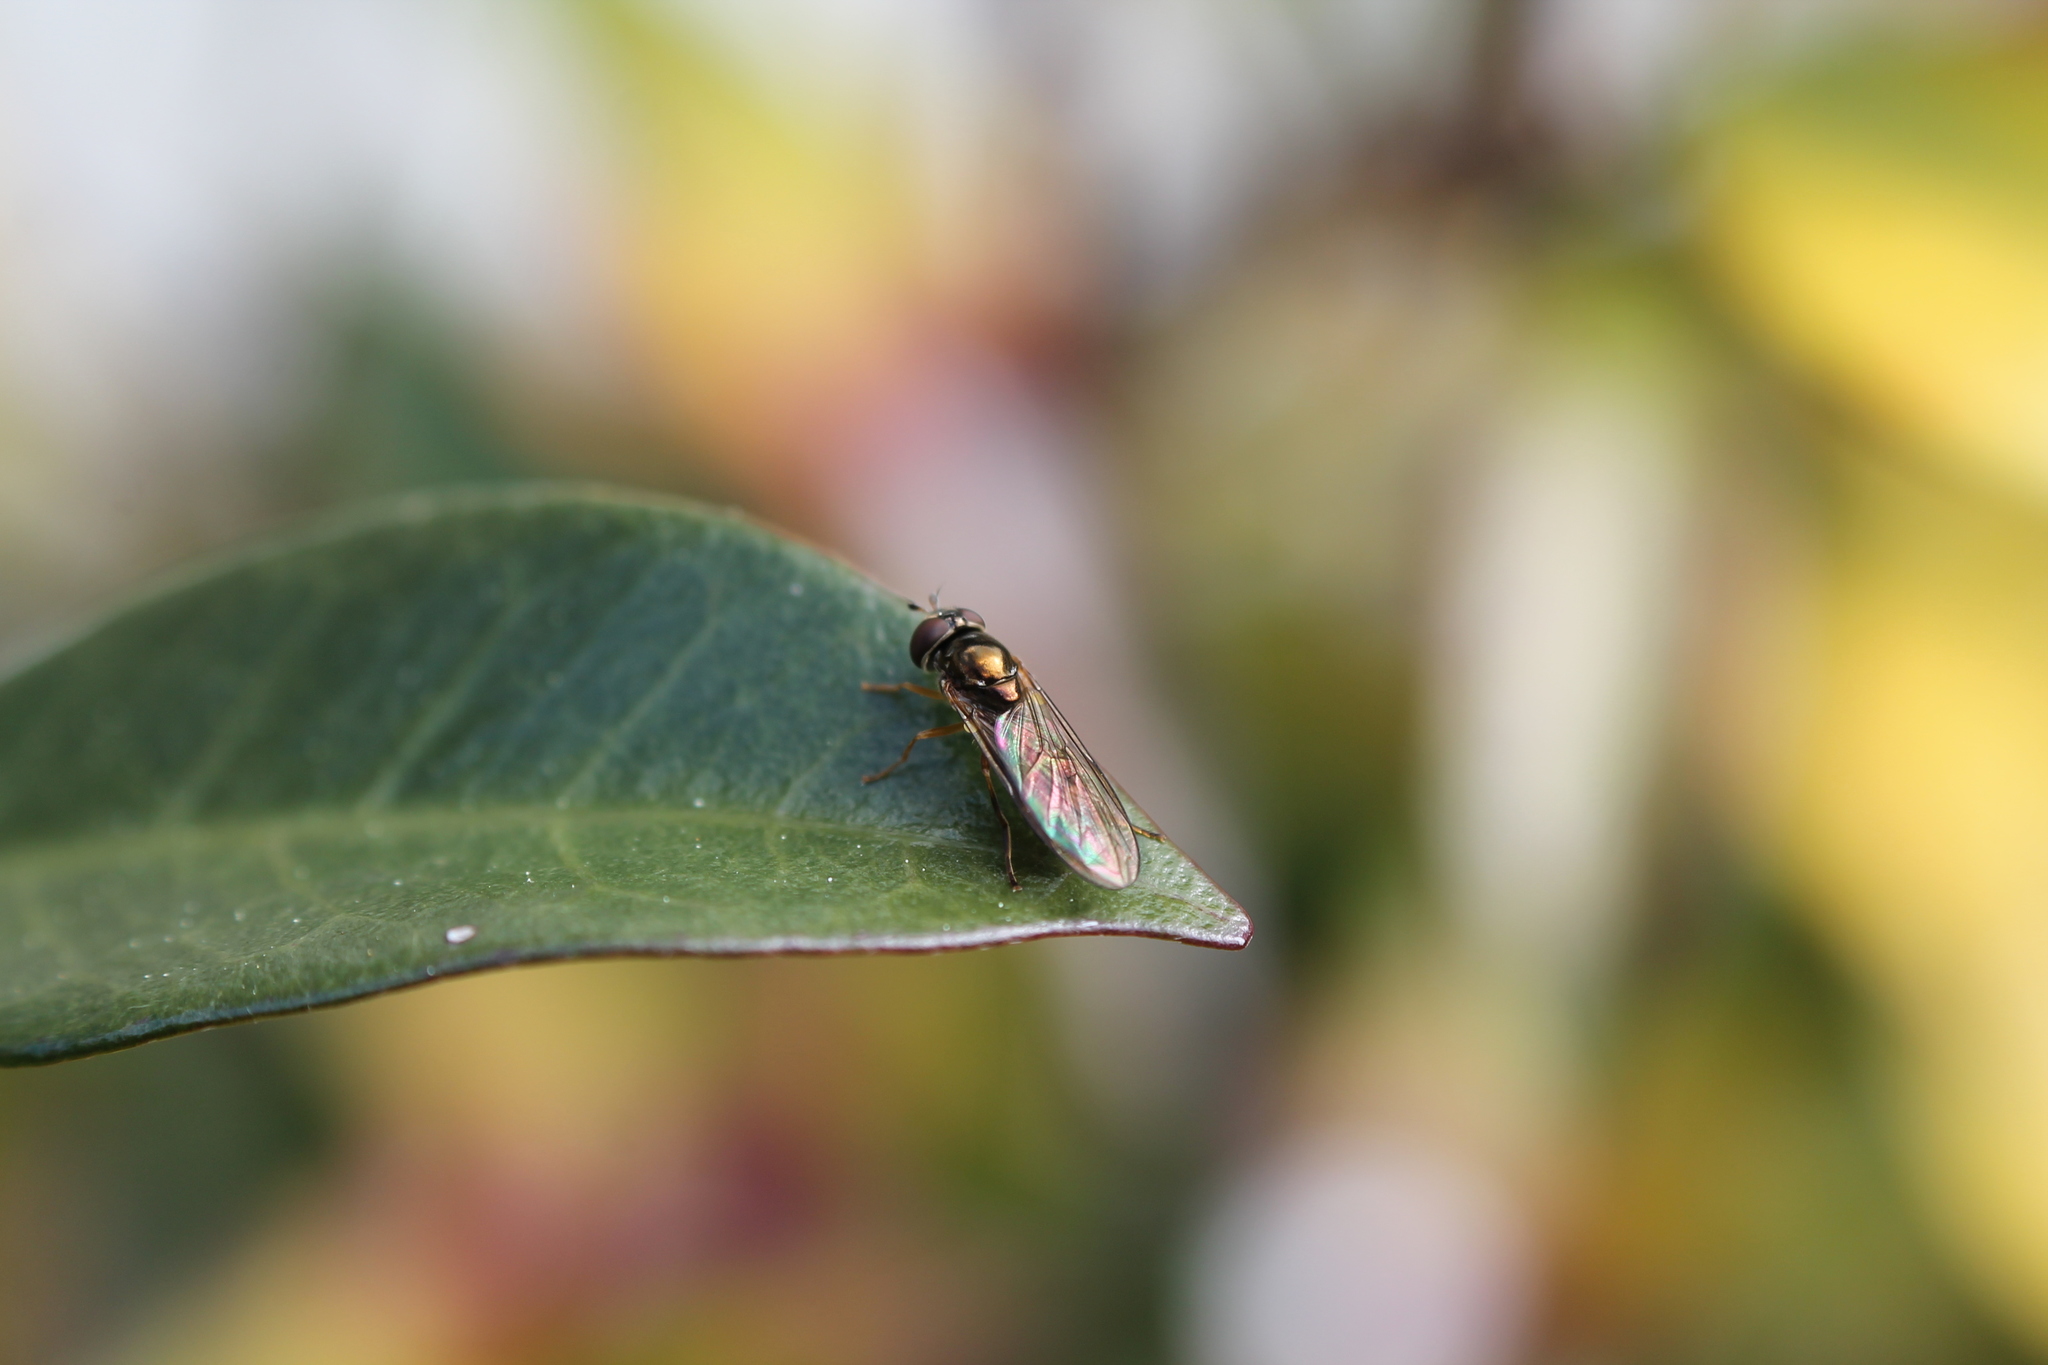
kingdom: Animalia
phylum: Arthropoda
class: Insecta
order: Diptera
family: Syrphidae
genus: Melanostoma
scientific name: Melanostoma fasciatum
